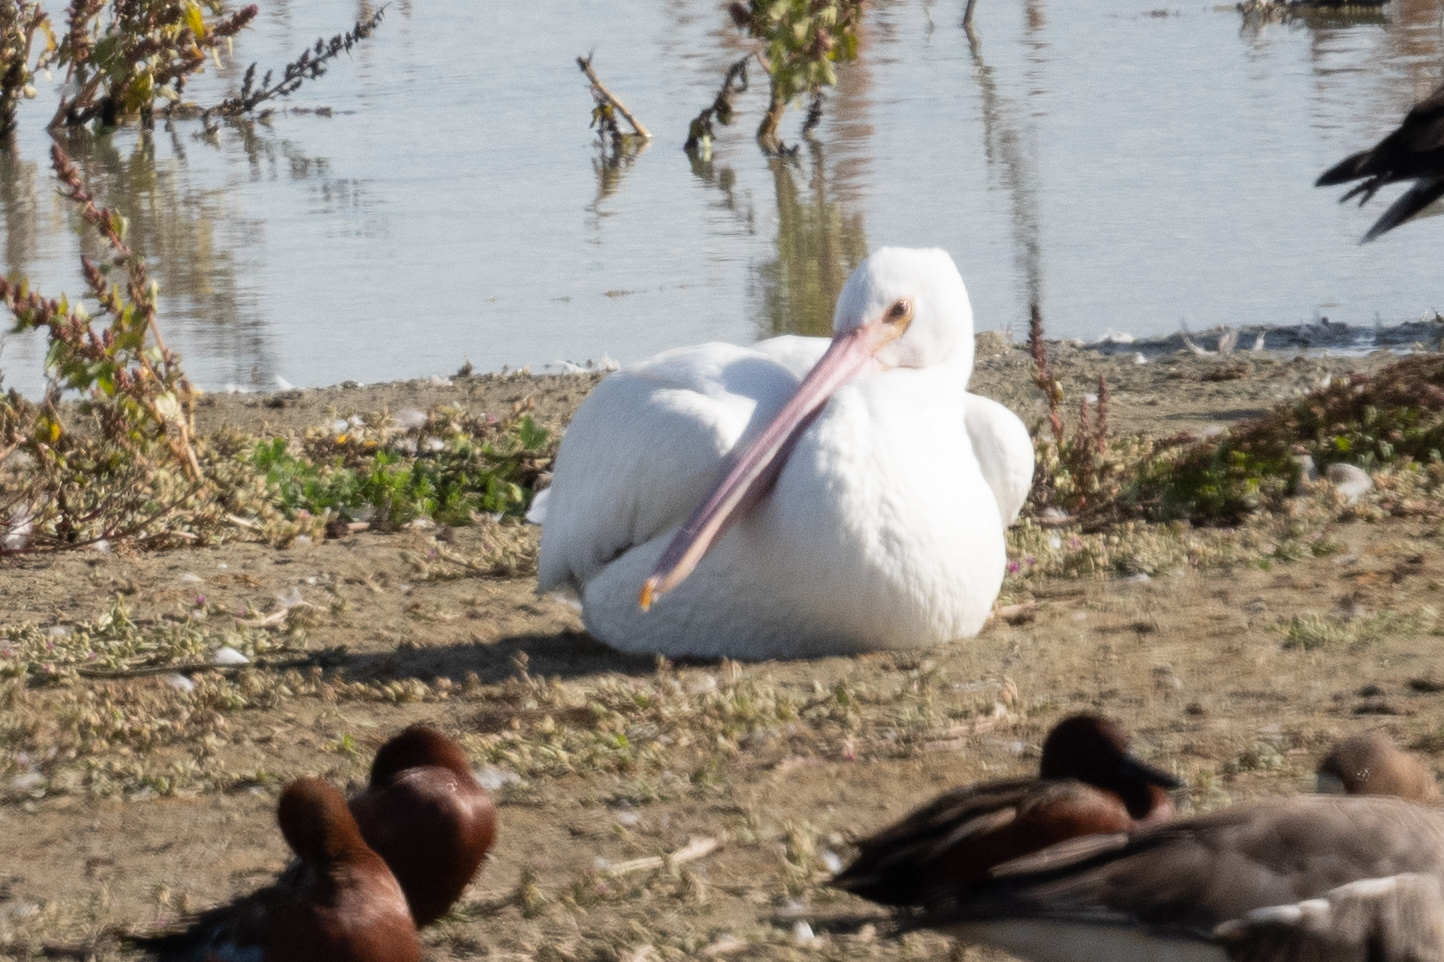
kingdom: Animalia
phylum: Chordata
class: Aves
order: Pelecaniformes
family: Pelecanidae
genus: Pelecanus
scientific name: Pelecanus erythrorhynchos
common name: American white pelican
